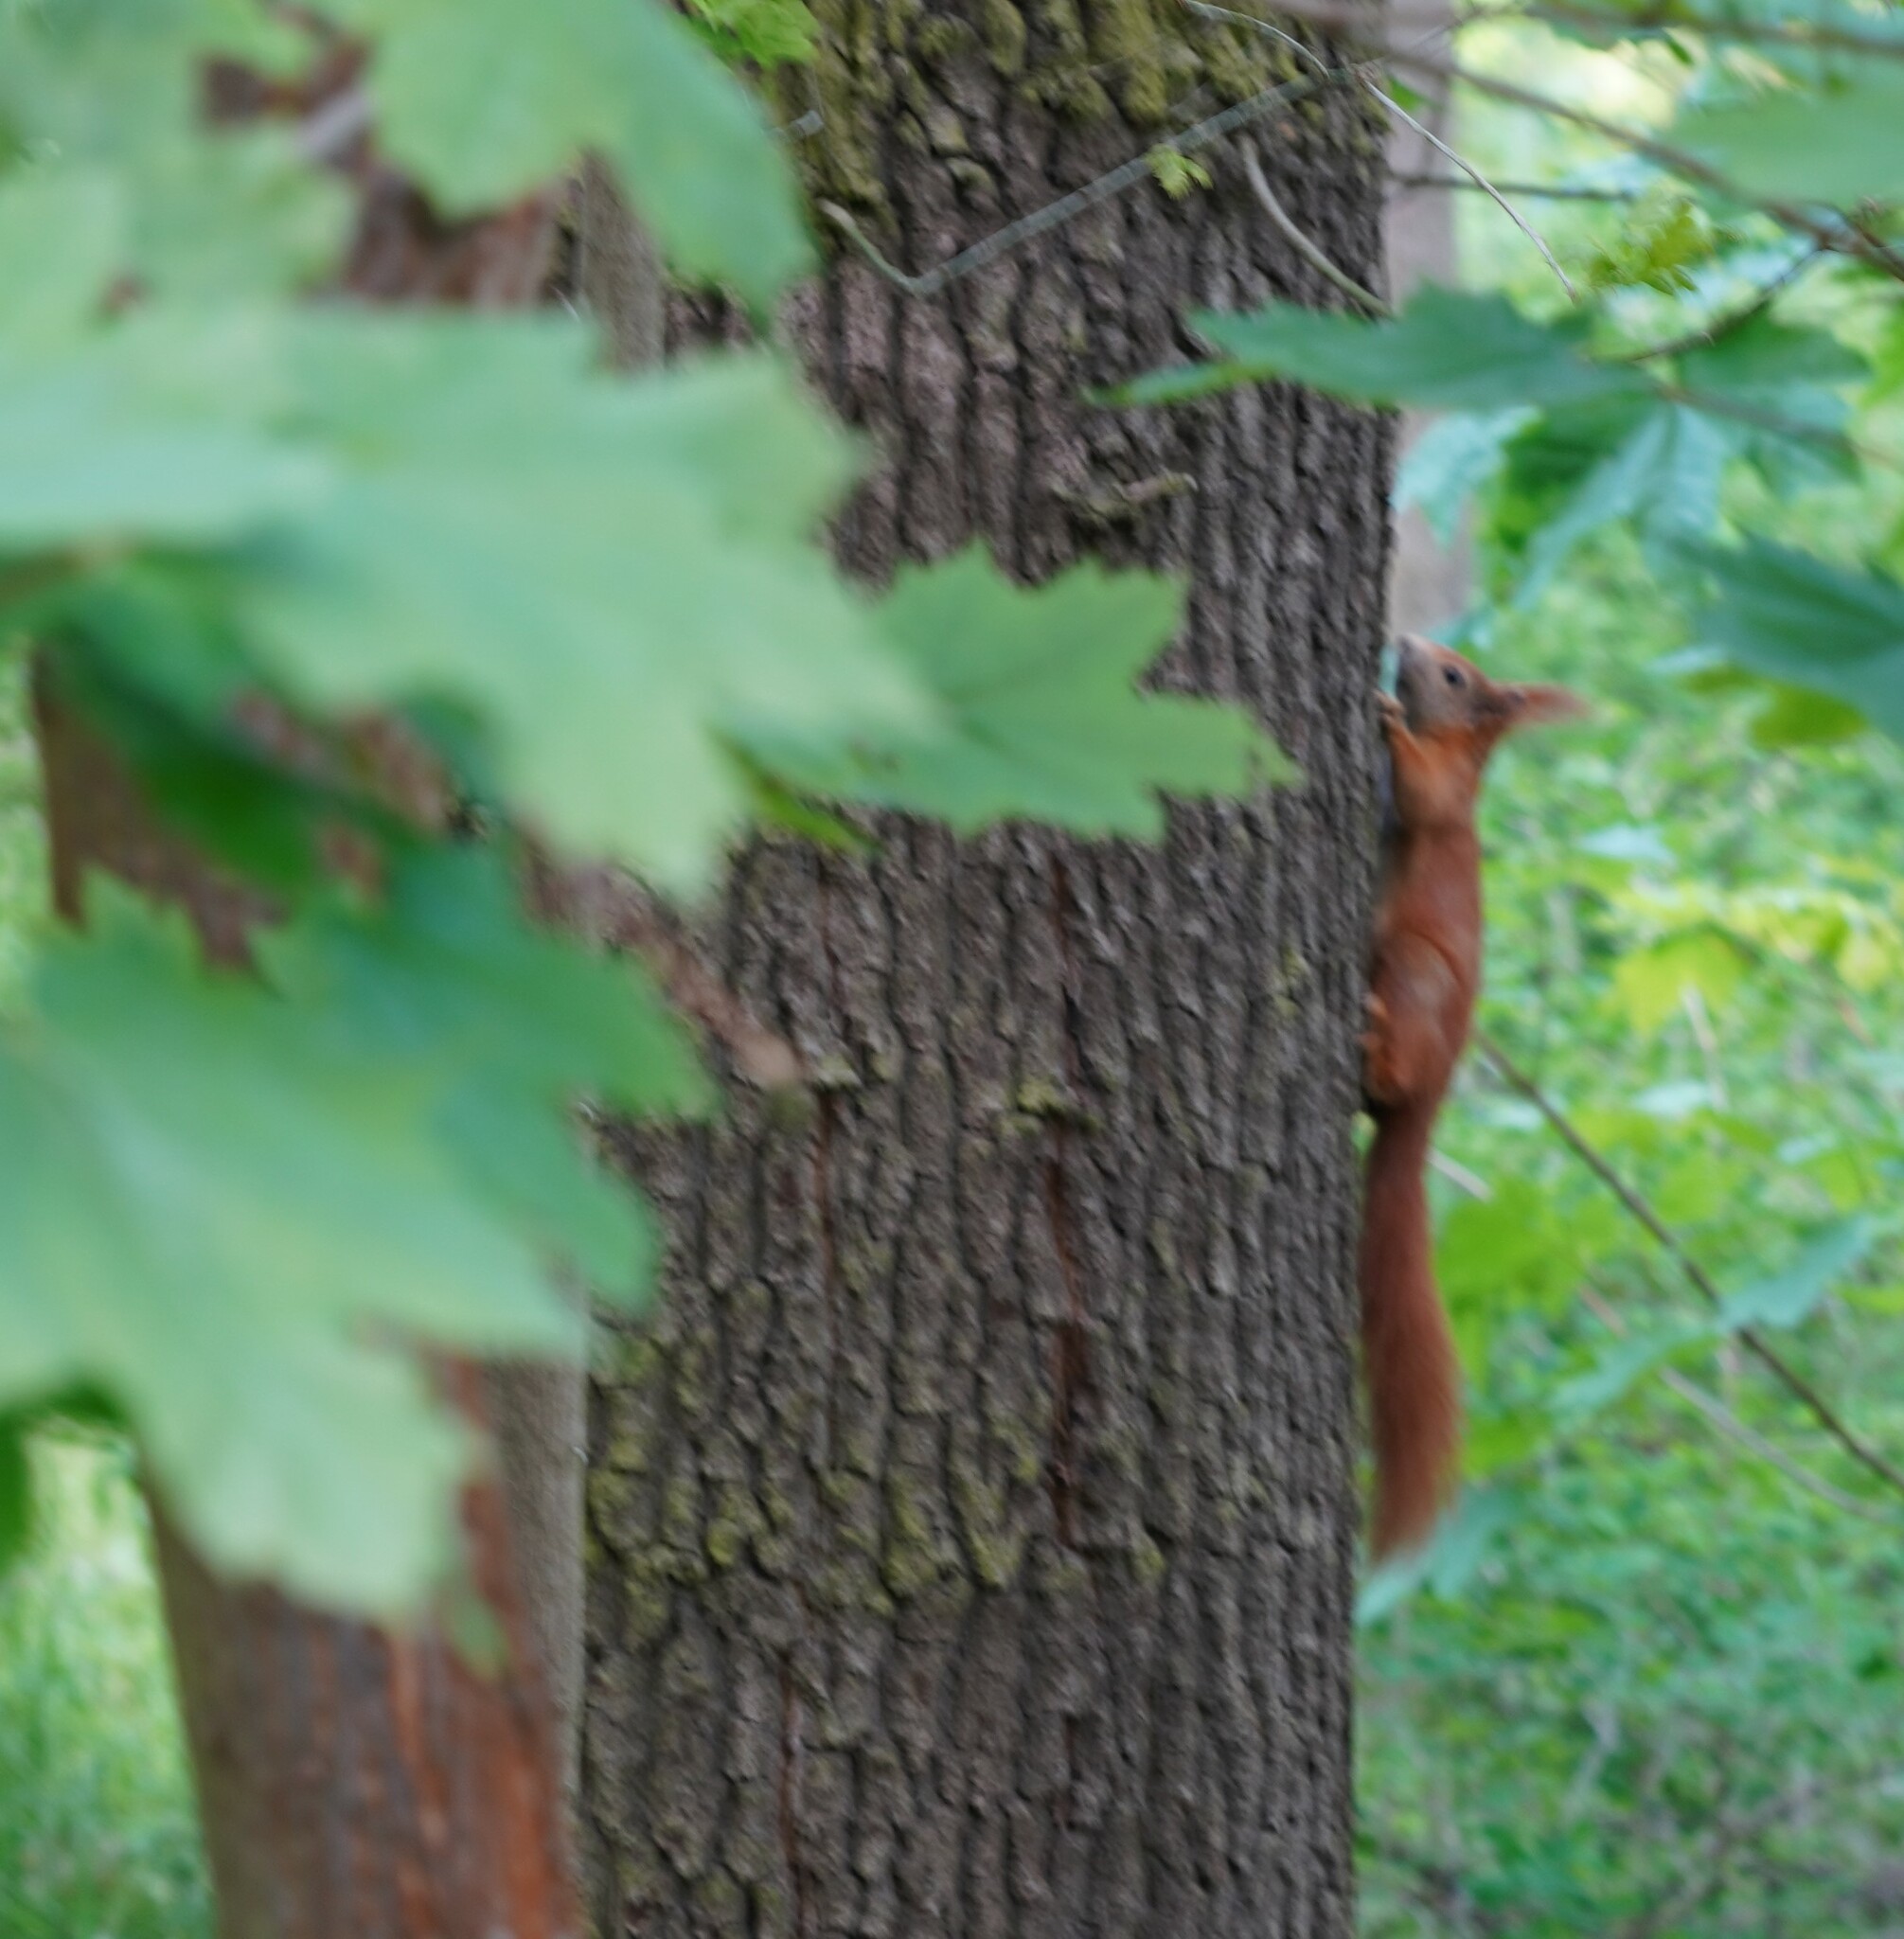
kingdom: Animalia
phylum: Chordata
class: Mammalia
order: Rodentia
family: Sciuridae
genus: Sciurus
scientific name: Sciurus vulgaris
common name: Eurasian red squirrel
